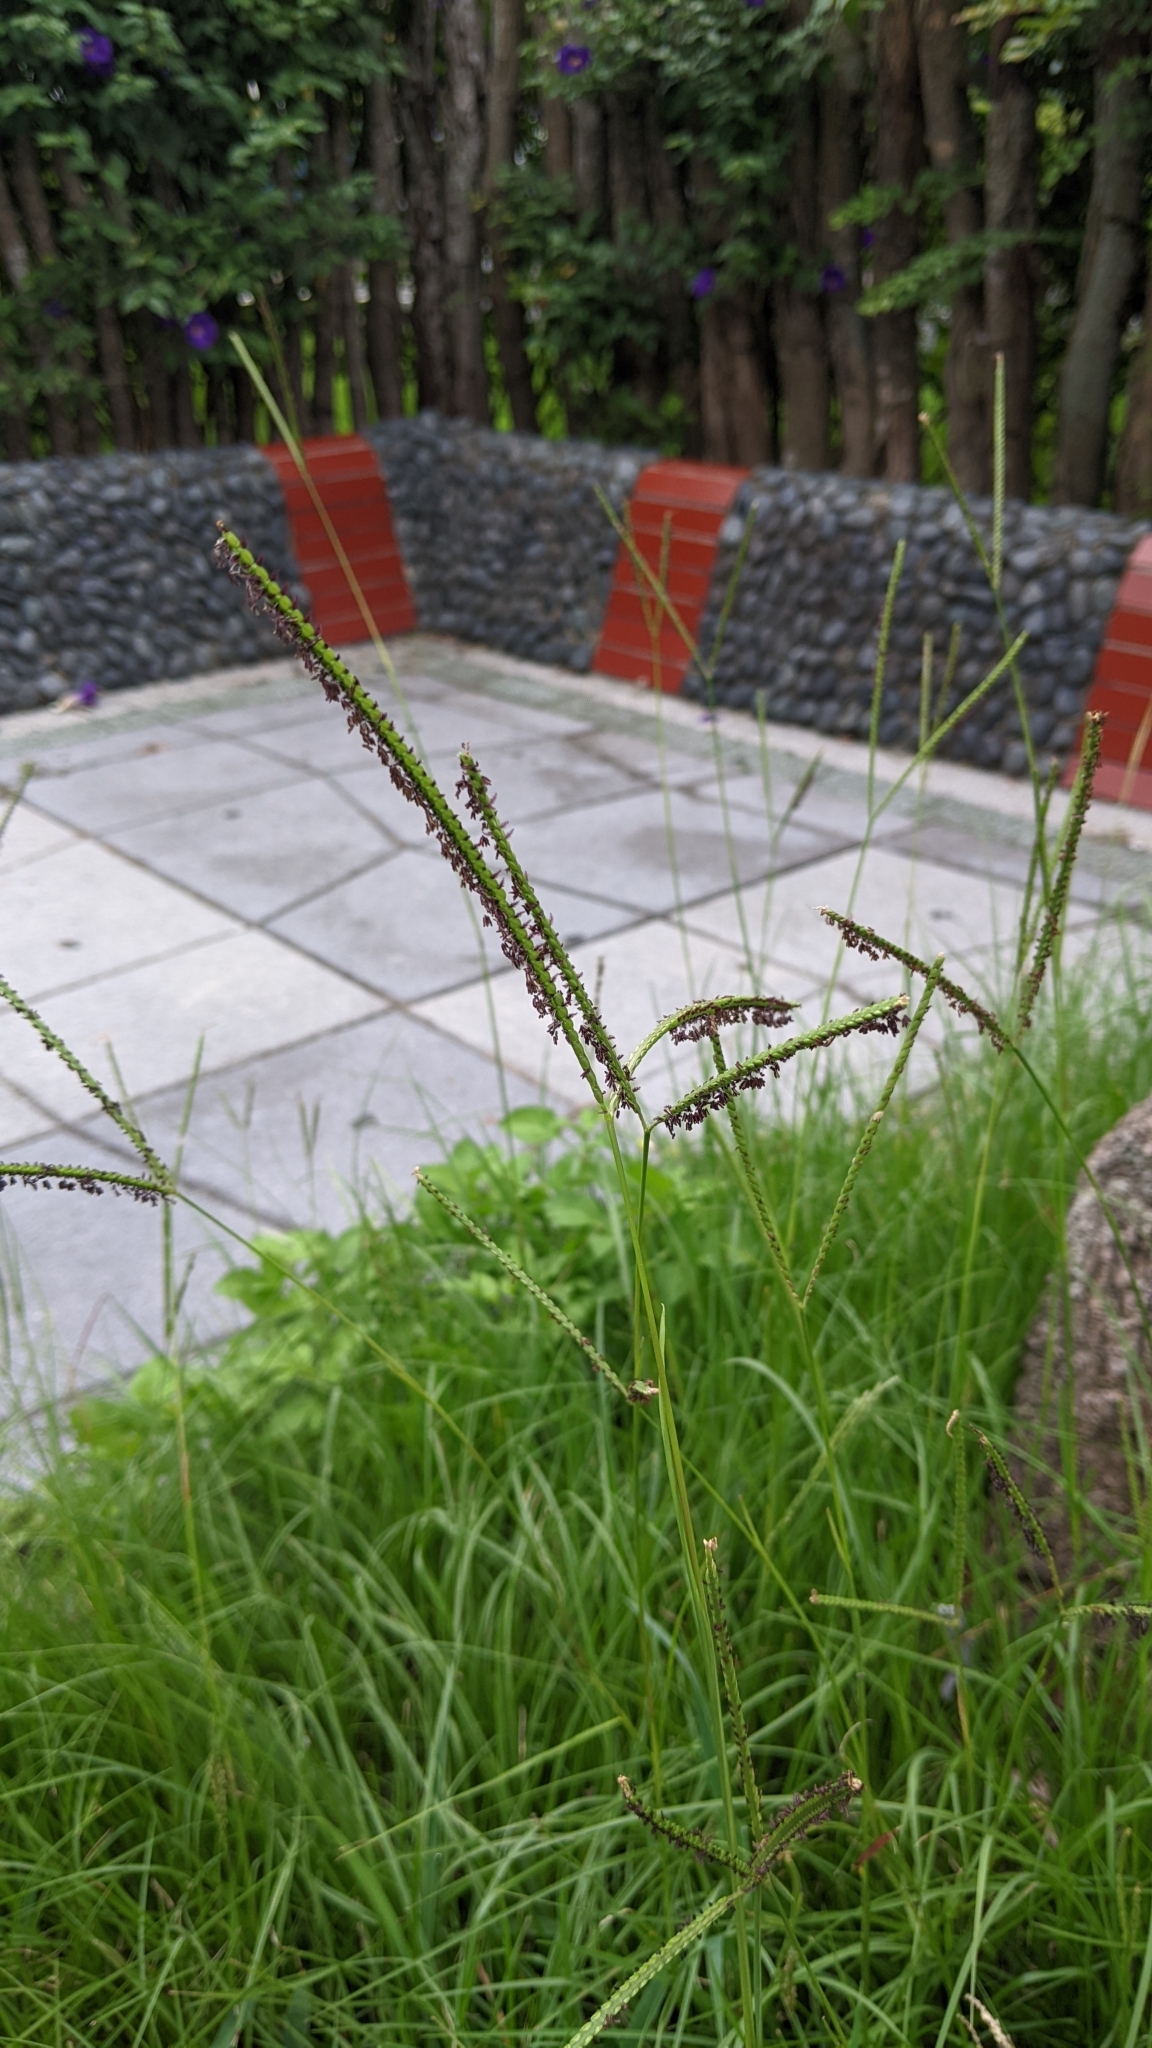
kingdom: Plantae
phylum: Tracheophyta
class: Liliopsida
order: Poales
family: Poaceae
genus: Paspalum
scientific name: Paspalum notatum
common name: Bahiagrass
